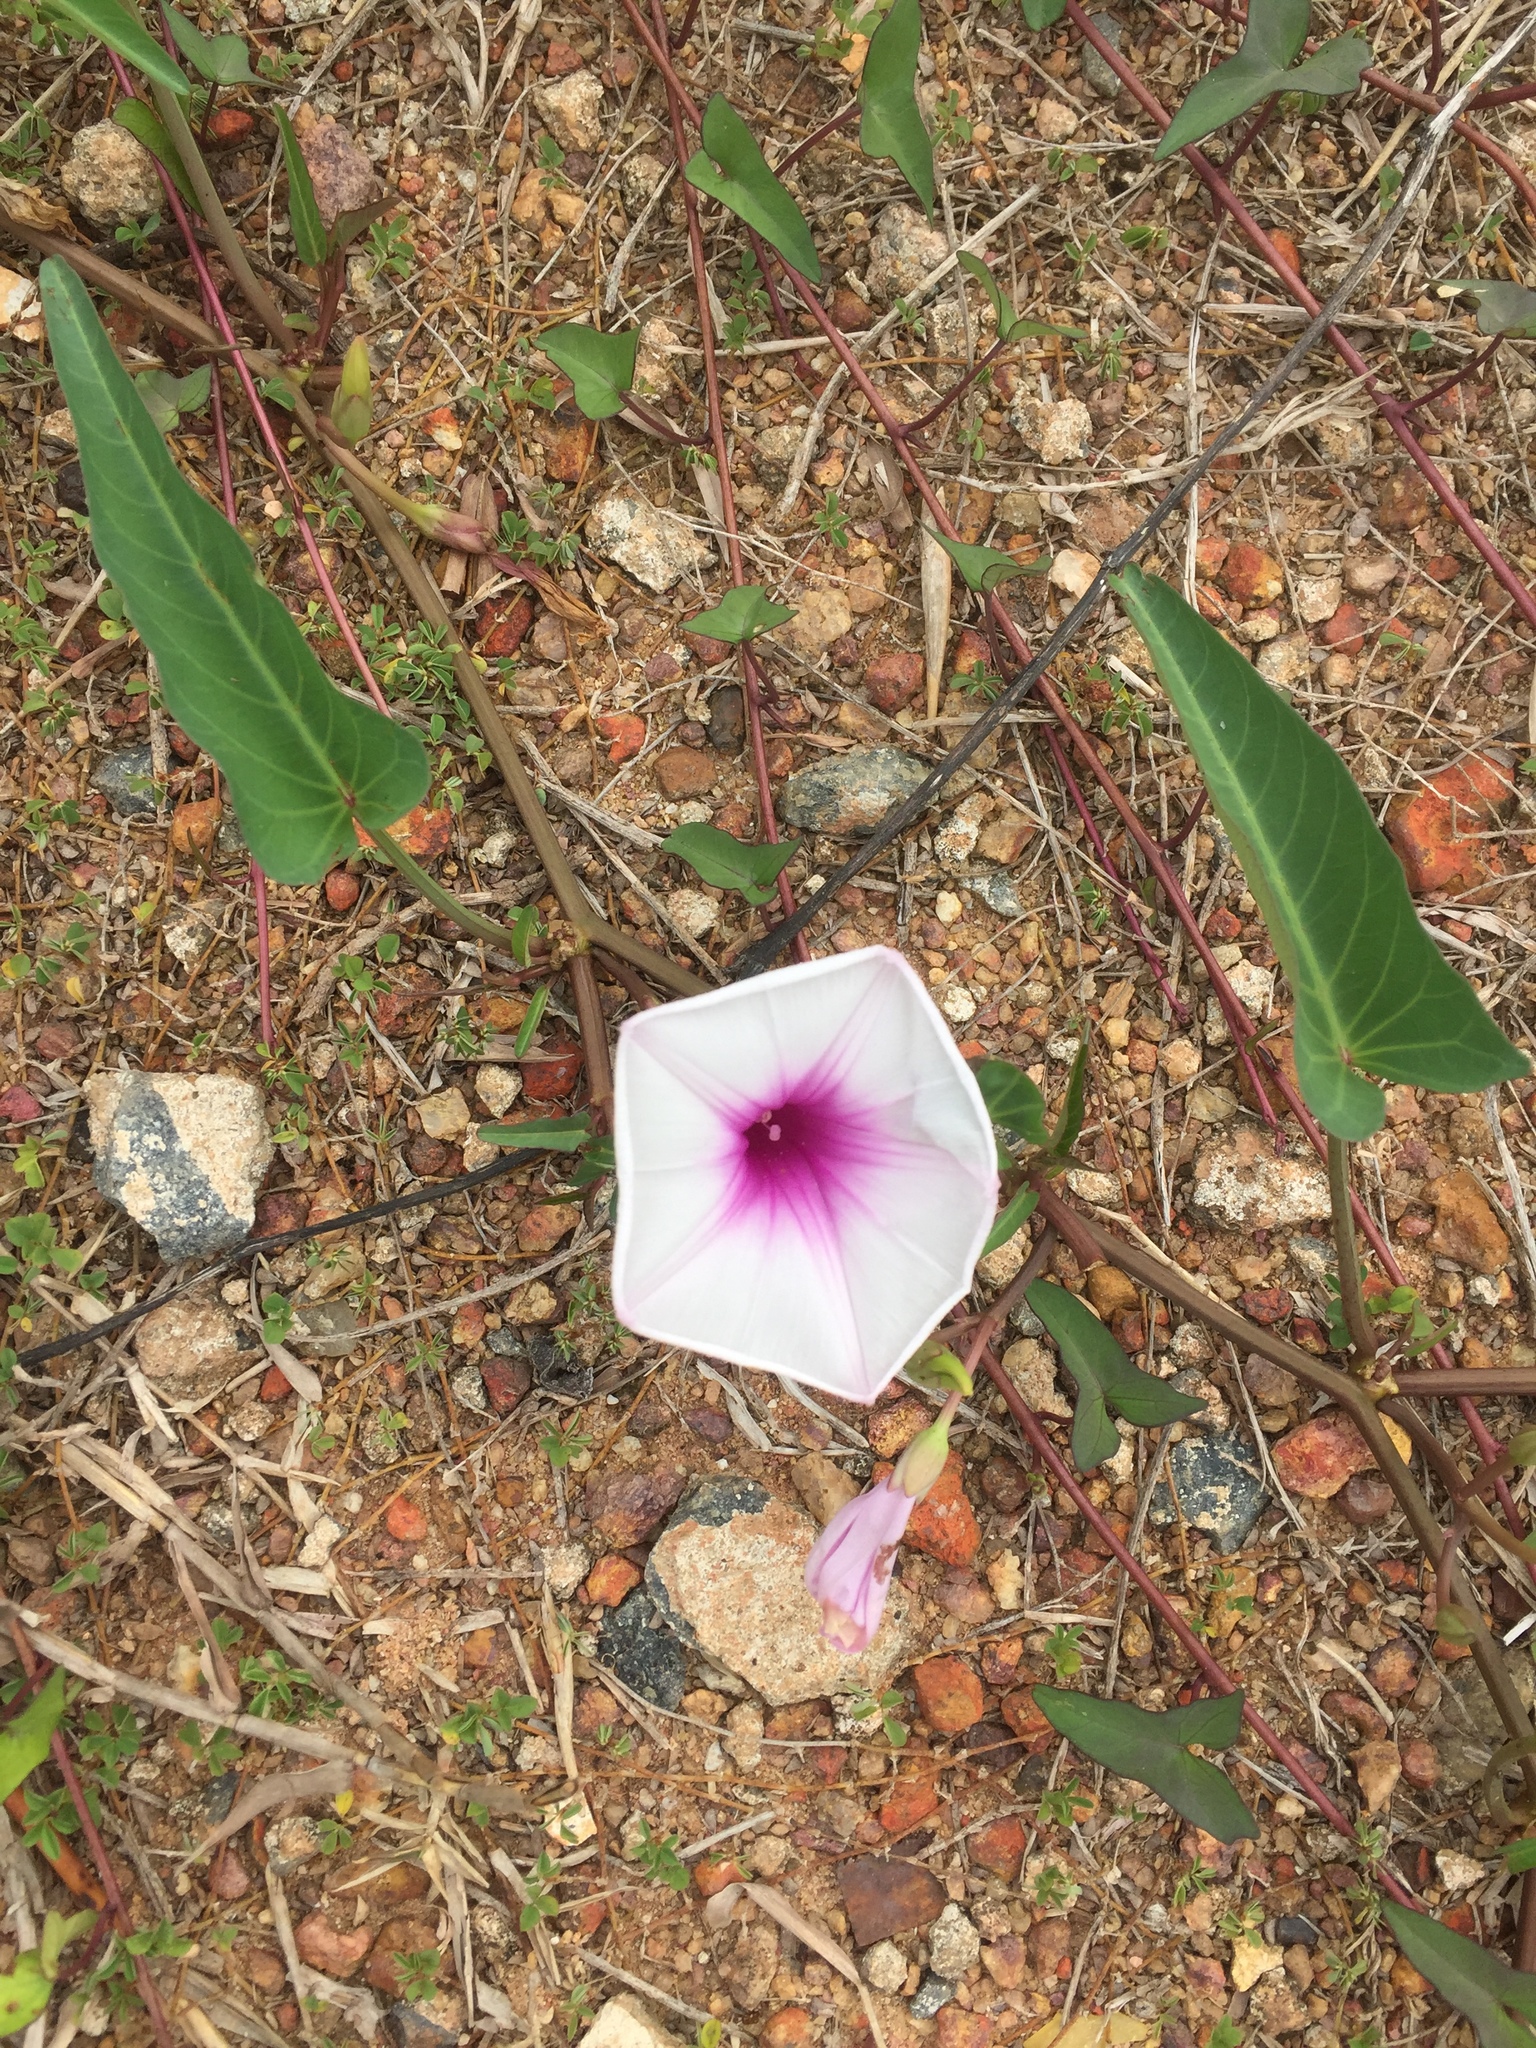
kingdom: Plantae
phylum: Tracheophyta
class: Magnoliopsida
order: Solanales
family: Convolvulaceae
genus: Ipomoea
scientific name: Ipomoea aquatica
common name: Swamp morning-glory
